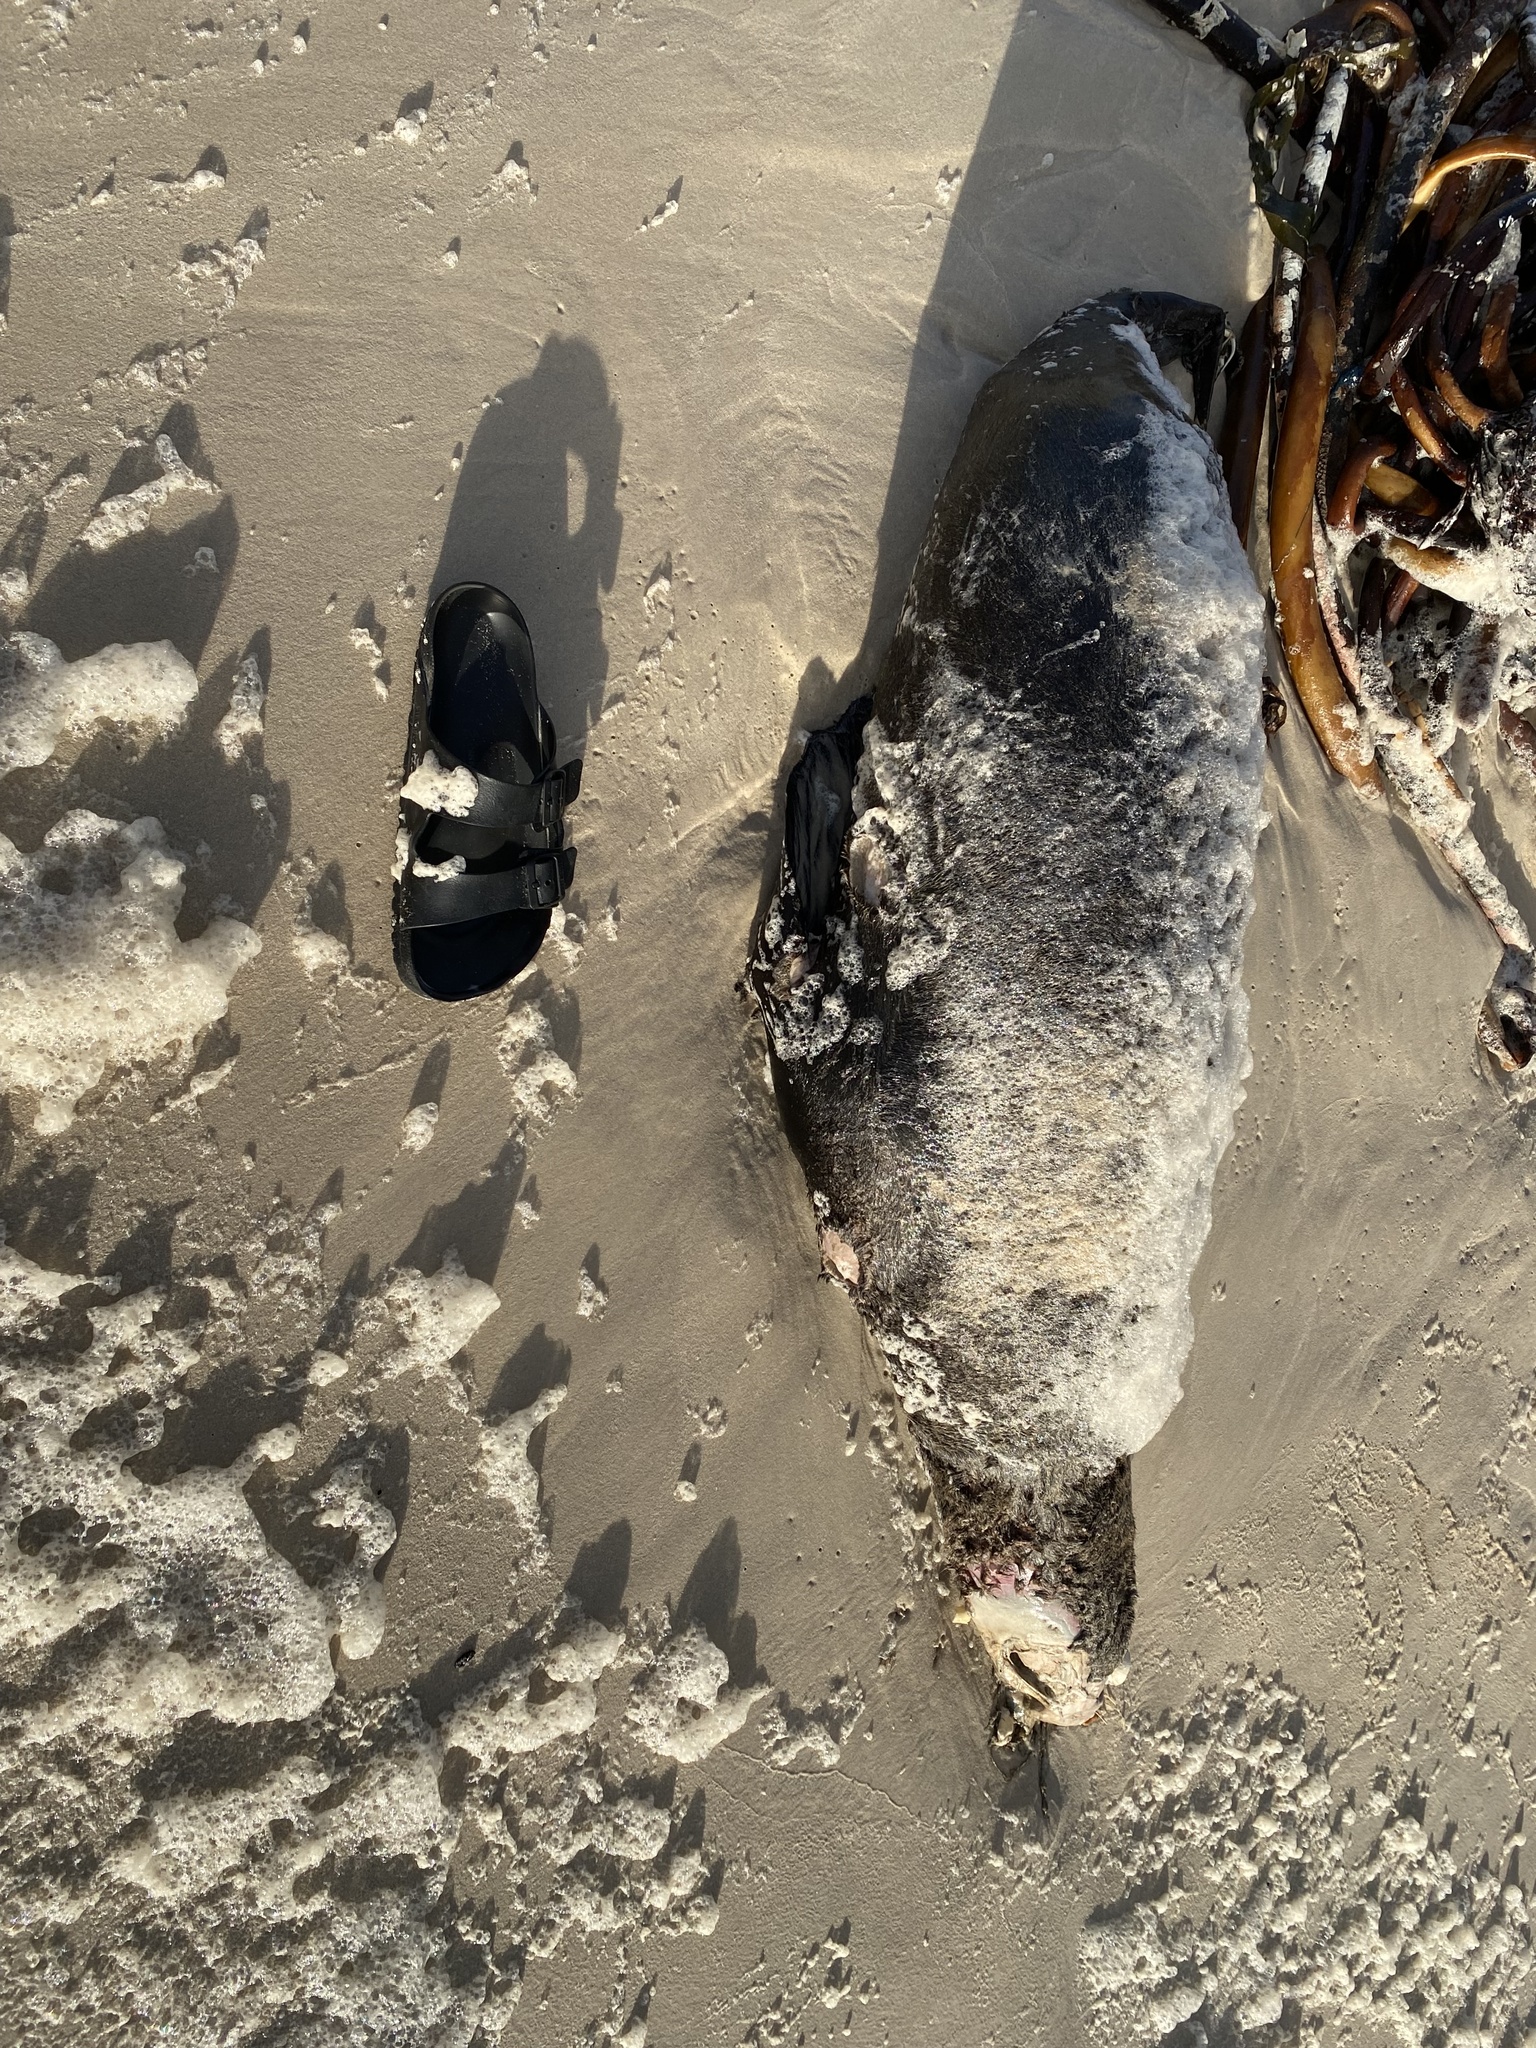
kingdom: Animalia
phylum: Chordata
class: Mammalia
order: Carnivora
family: Otariidae
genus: Arctocephalus
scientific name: Arctocephalus pusillus
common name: Brown fur seal
